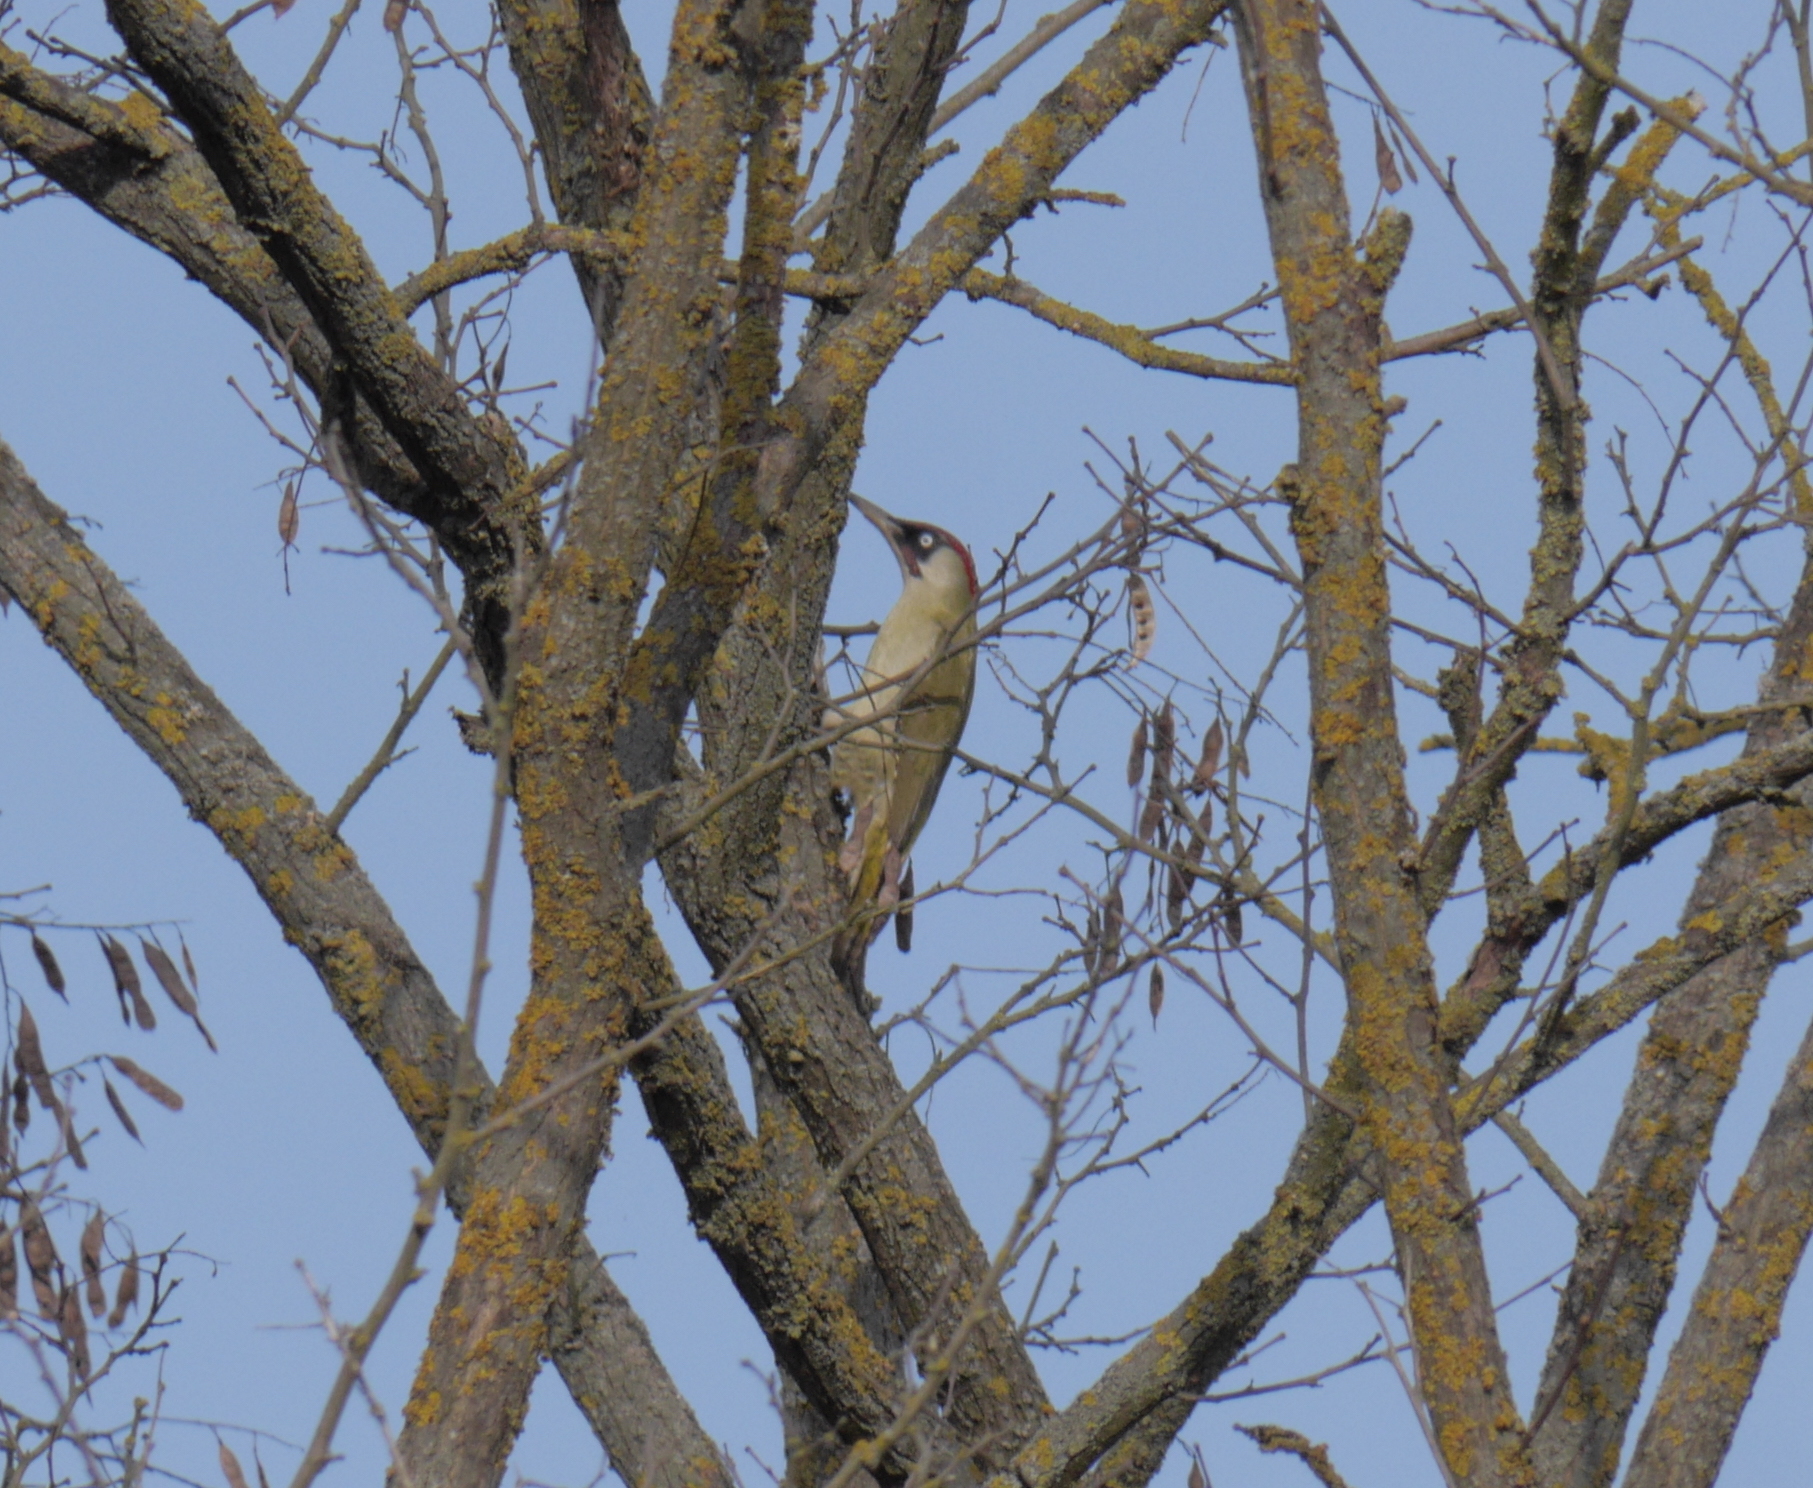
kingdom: Animalia
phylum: Chordata
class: Aves
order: Piciformes
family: Picidae
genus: Picus
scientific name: Picus viridis
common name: European green woodpecker
